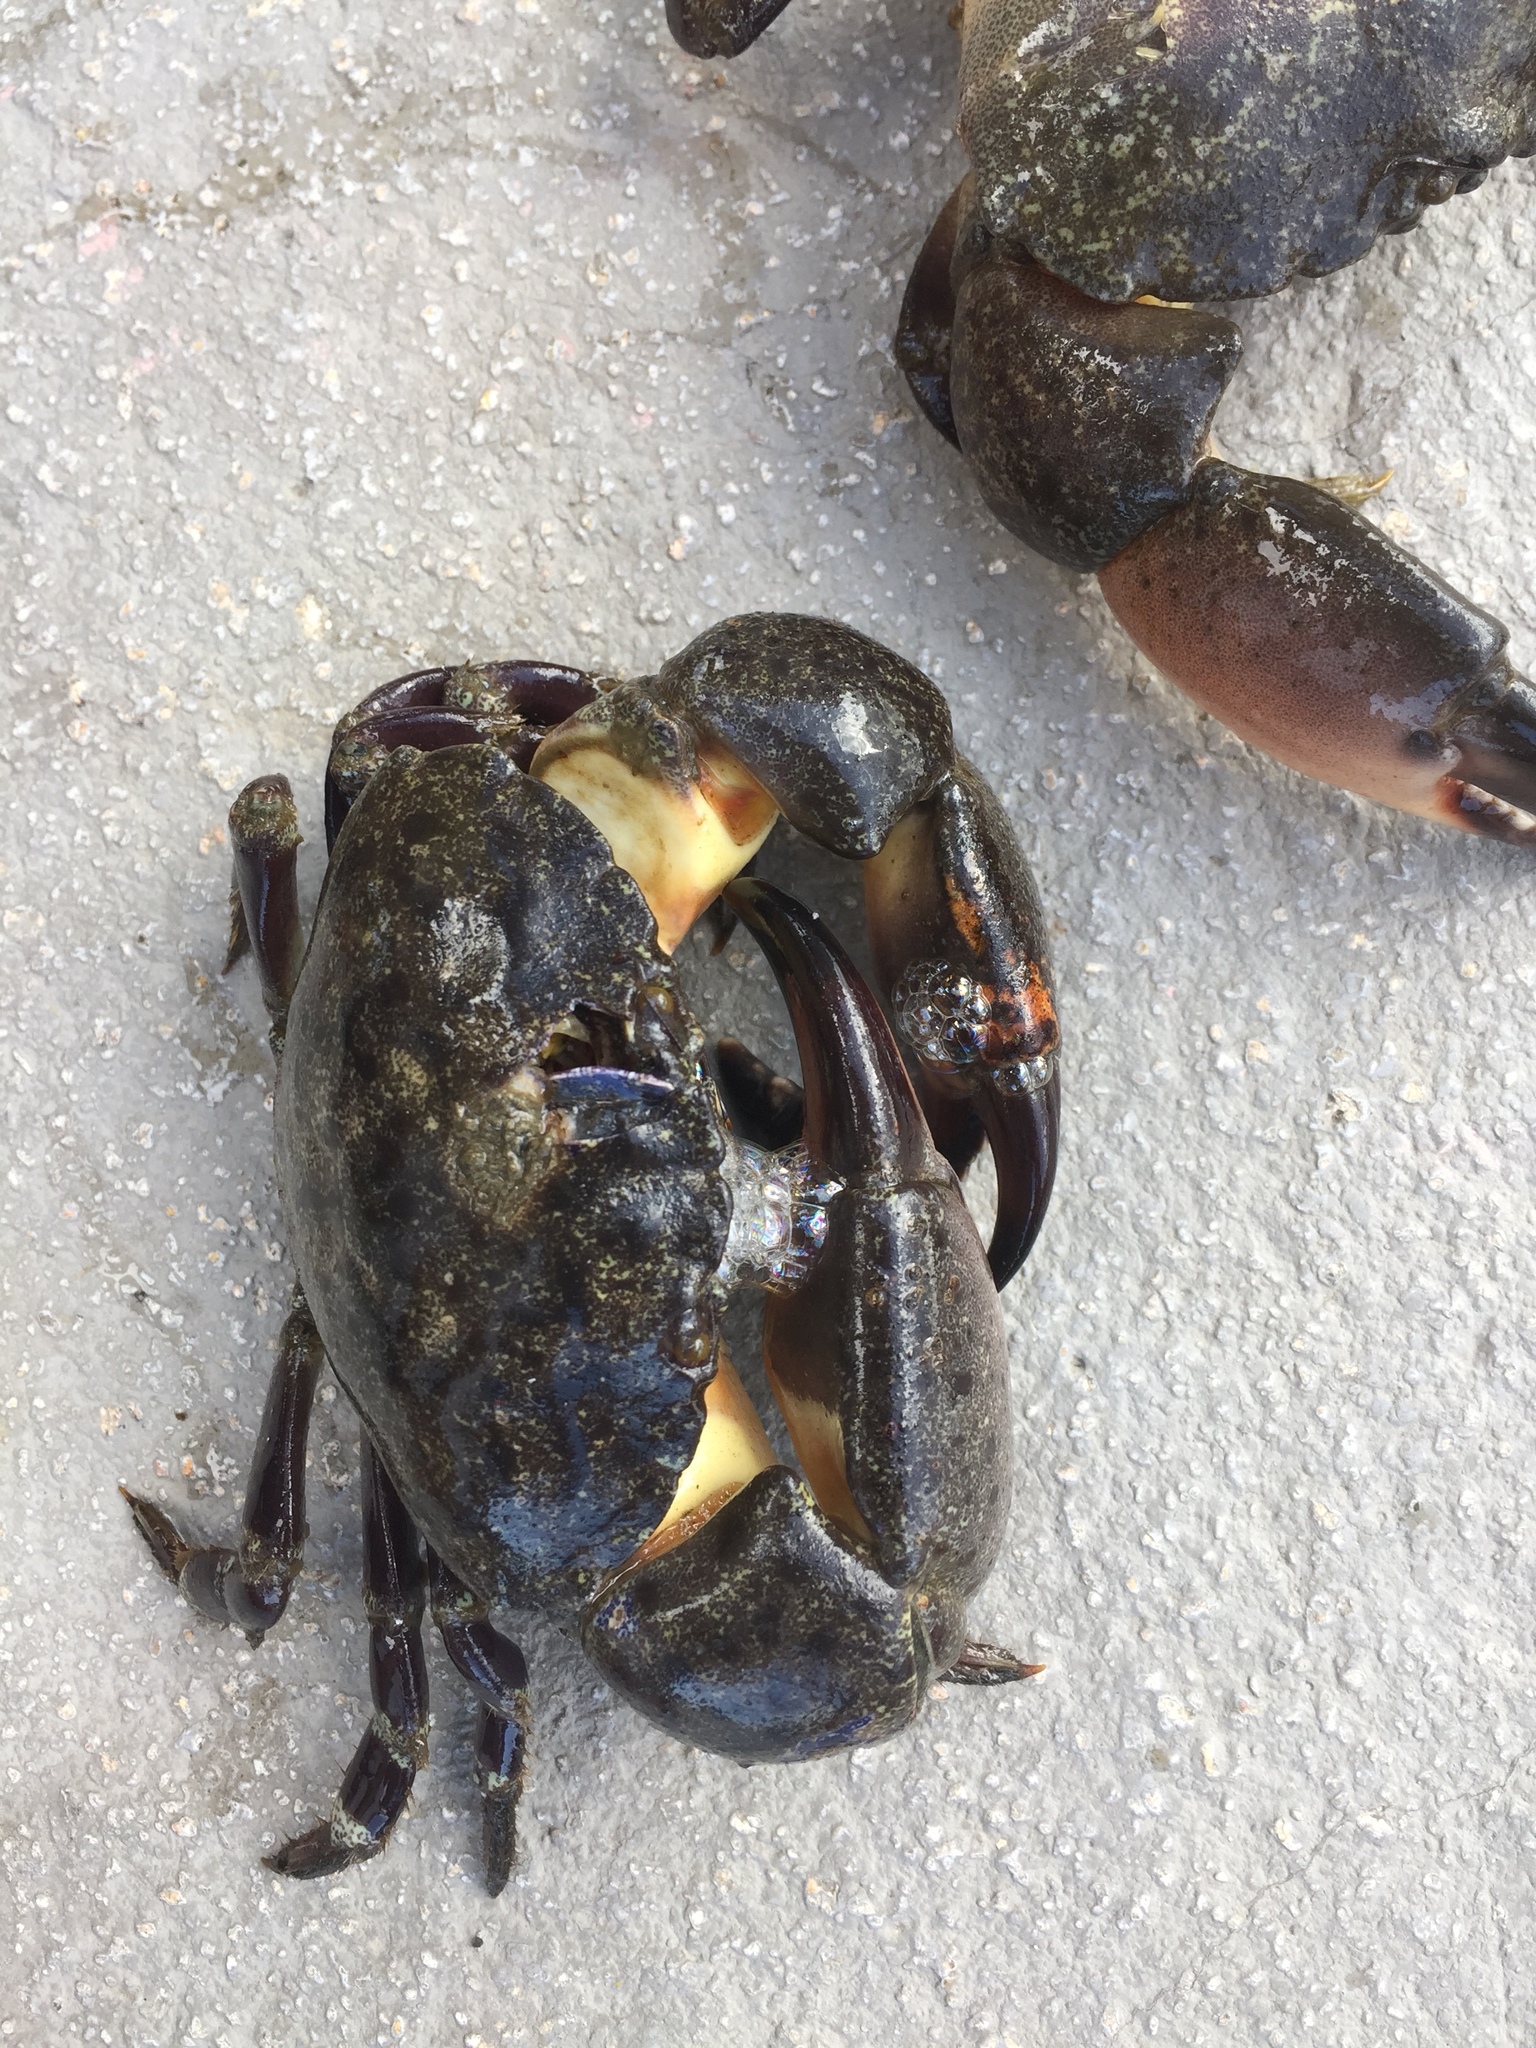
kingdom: Animalia
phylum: Arthropoda
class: Malacostraca
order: Decapoda
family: Menippidae
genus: Menippe
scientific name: Menippe mercenaria
